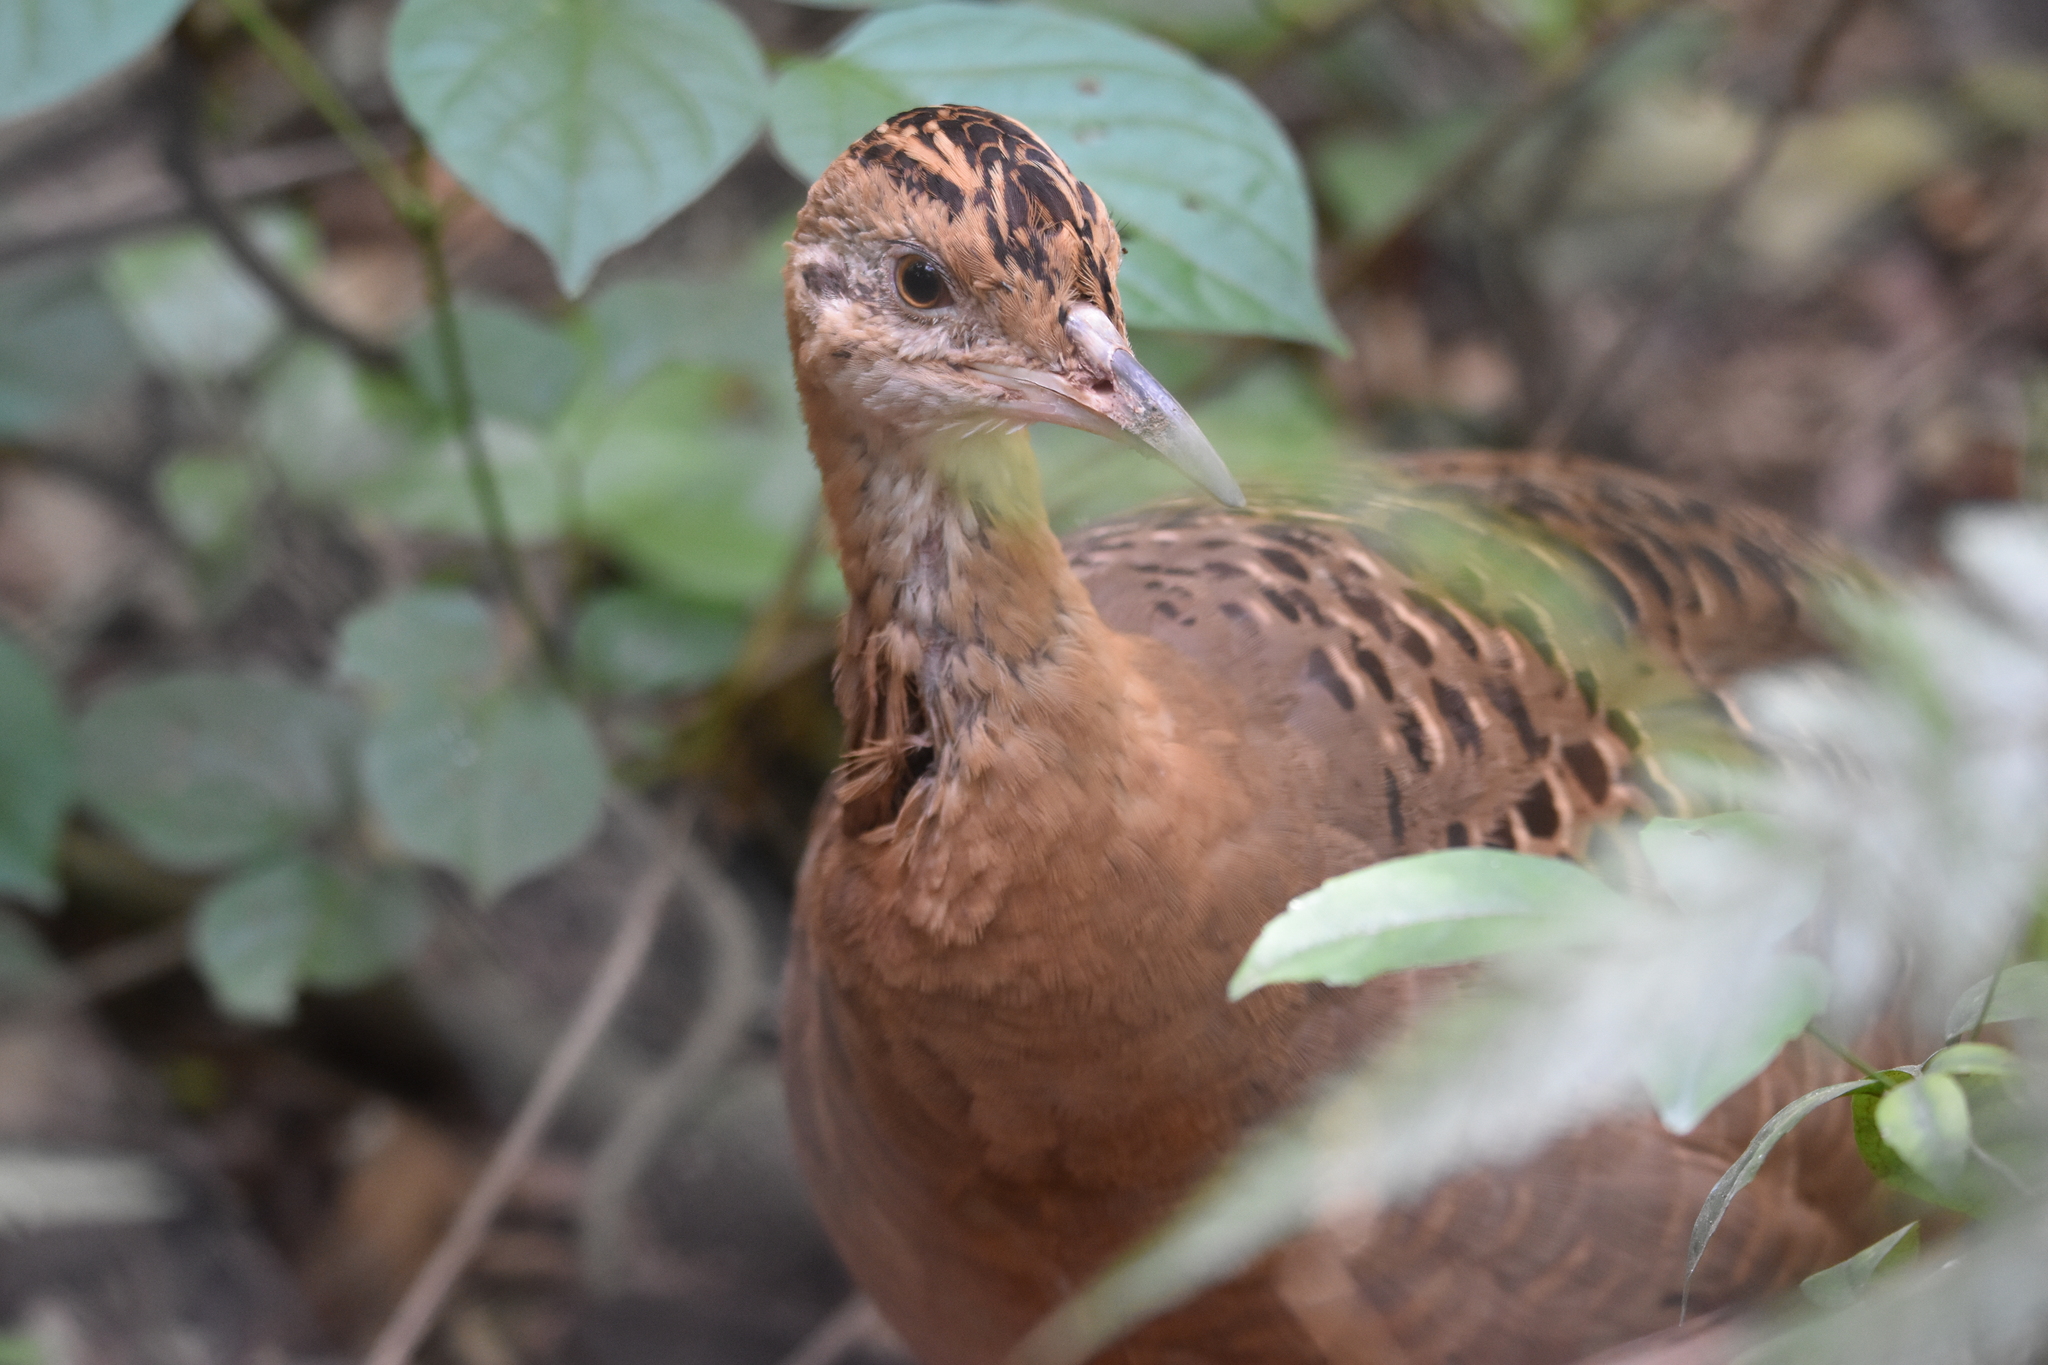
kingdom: Animalia
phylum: Chordata
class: Aves
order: Tinamiformes
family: Tinamidae
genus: Rhynchotus
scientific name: Rhynchotus rufescens
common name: Red-winged tinamou
